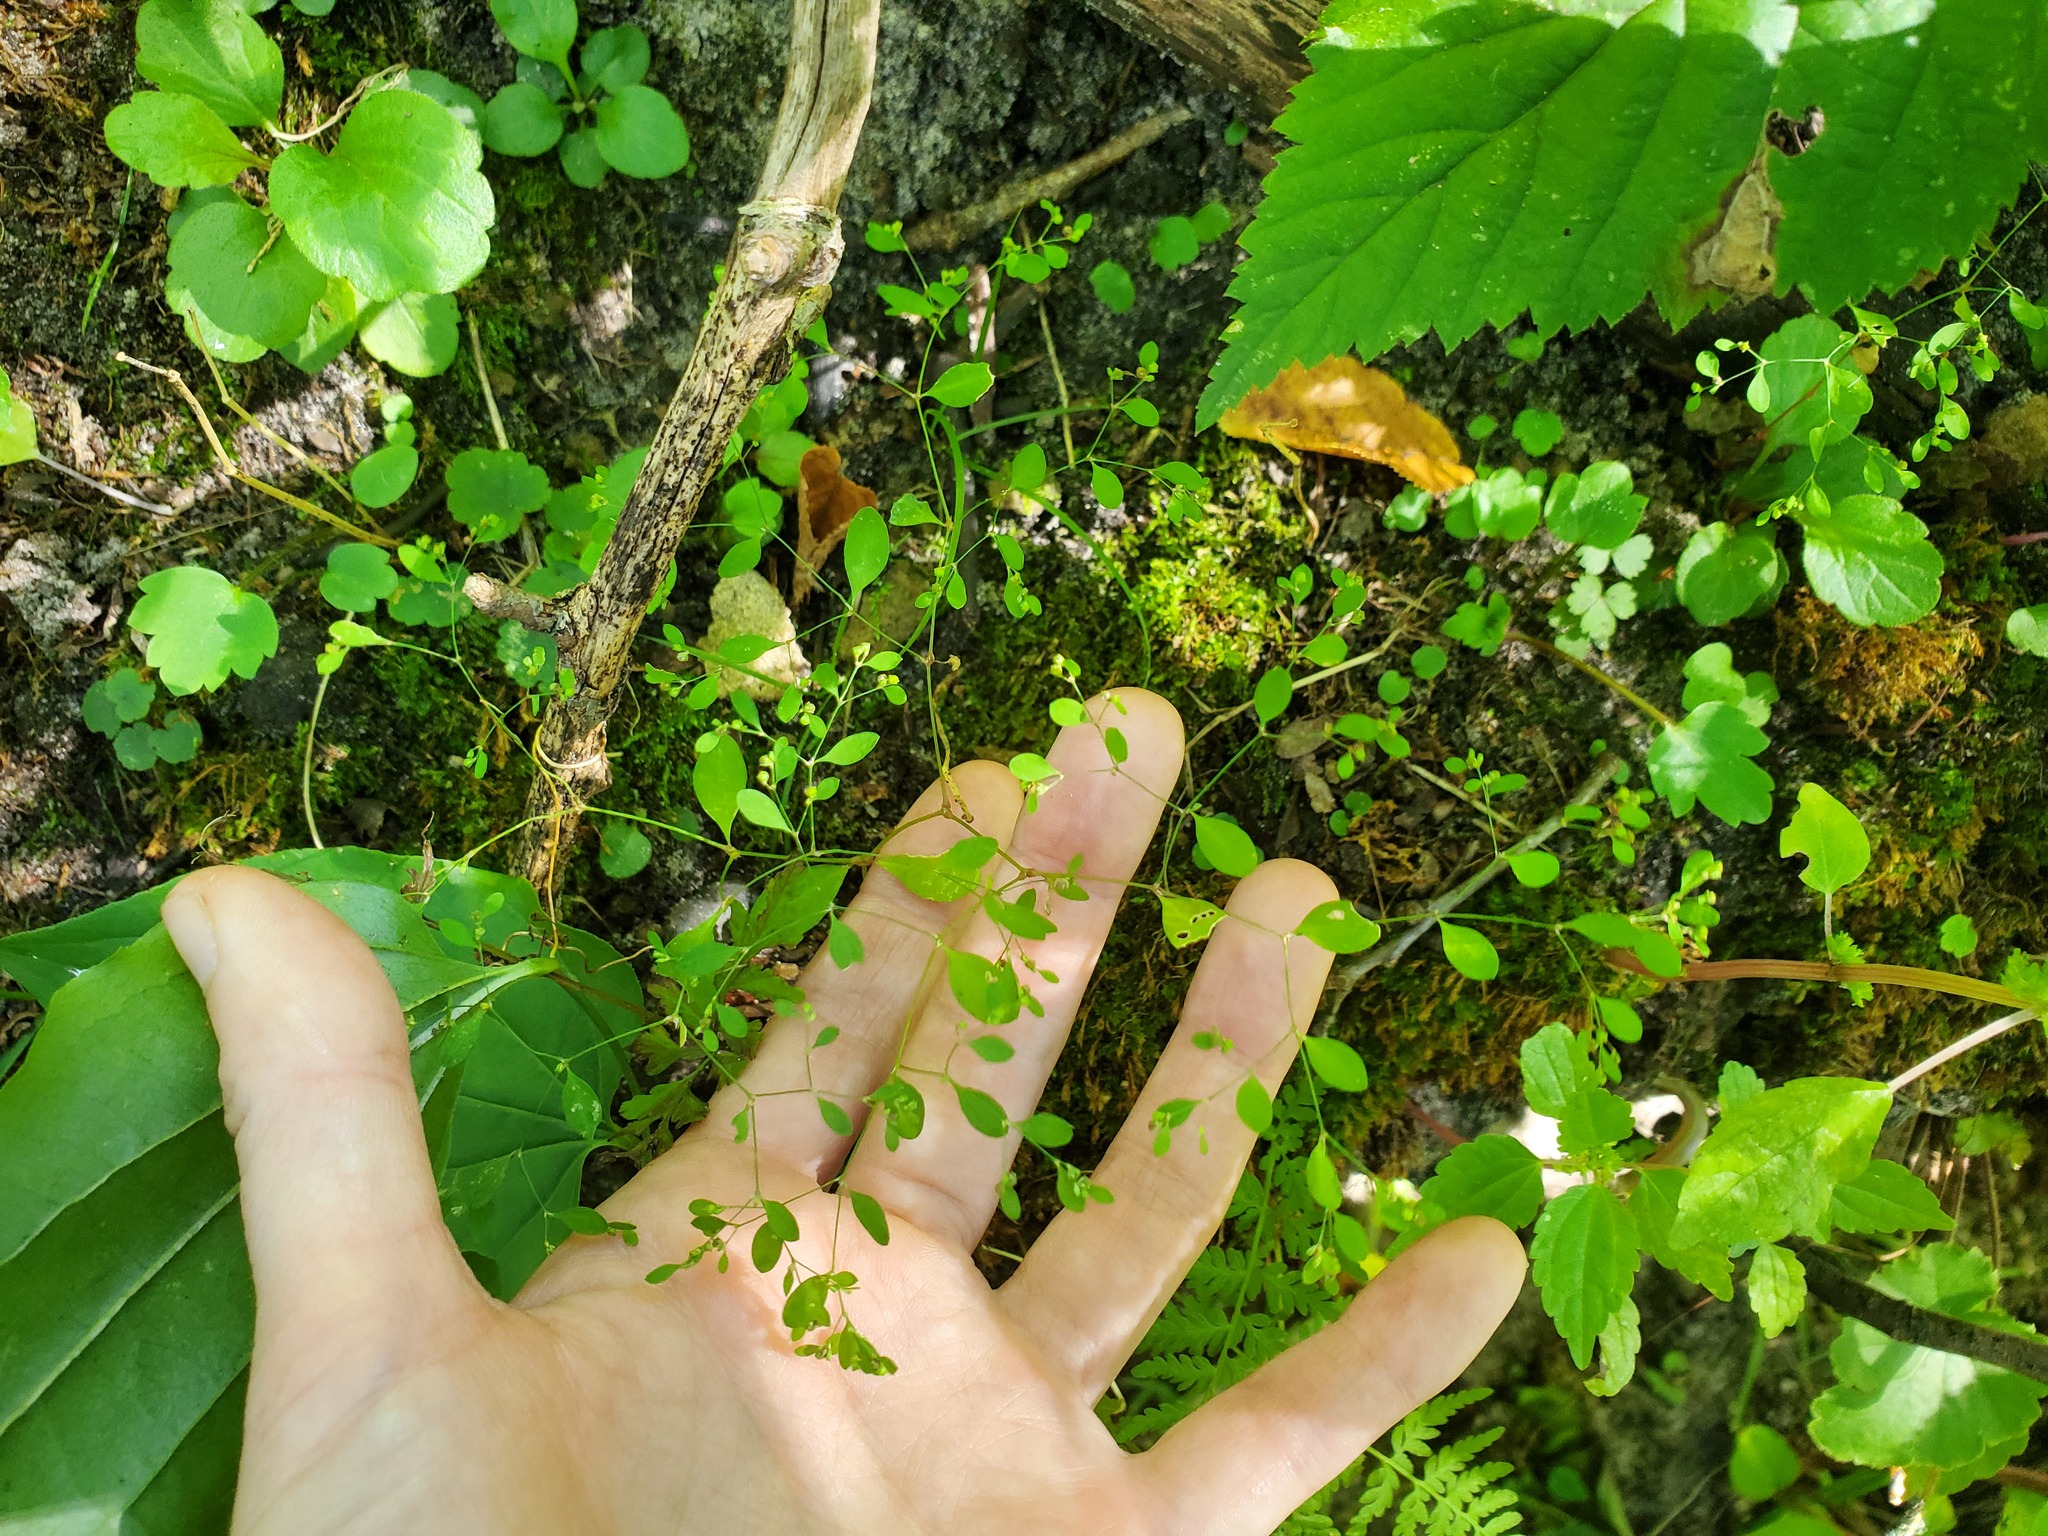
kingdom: Plantae
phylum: Tracheophyta
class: Magnoliopsida
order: Caryophyllales
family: Caryophyllaceae
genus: Paronychia
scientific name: Paronychia canadensis
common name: Canada forked nailwort
